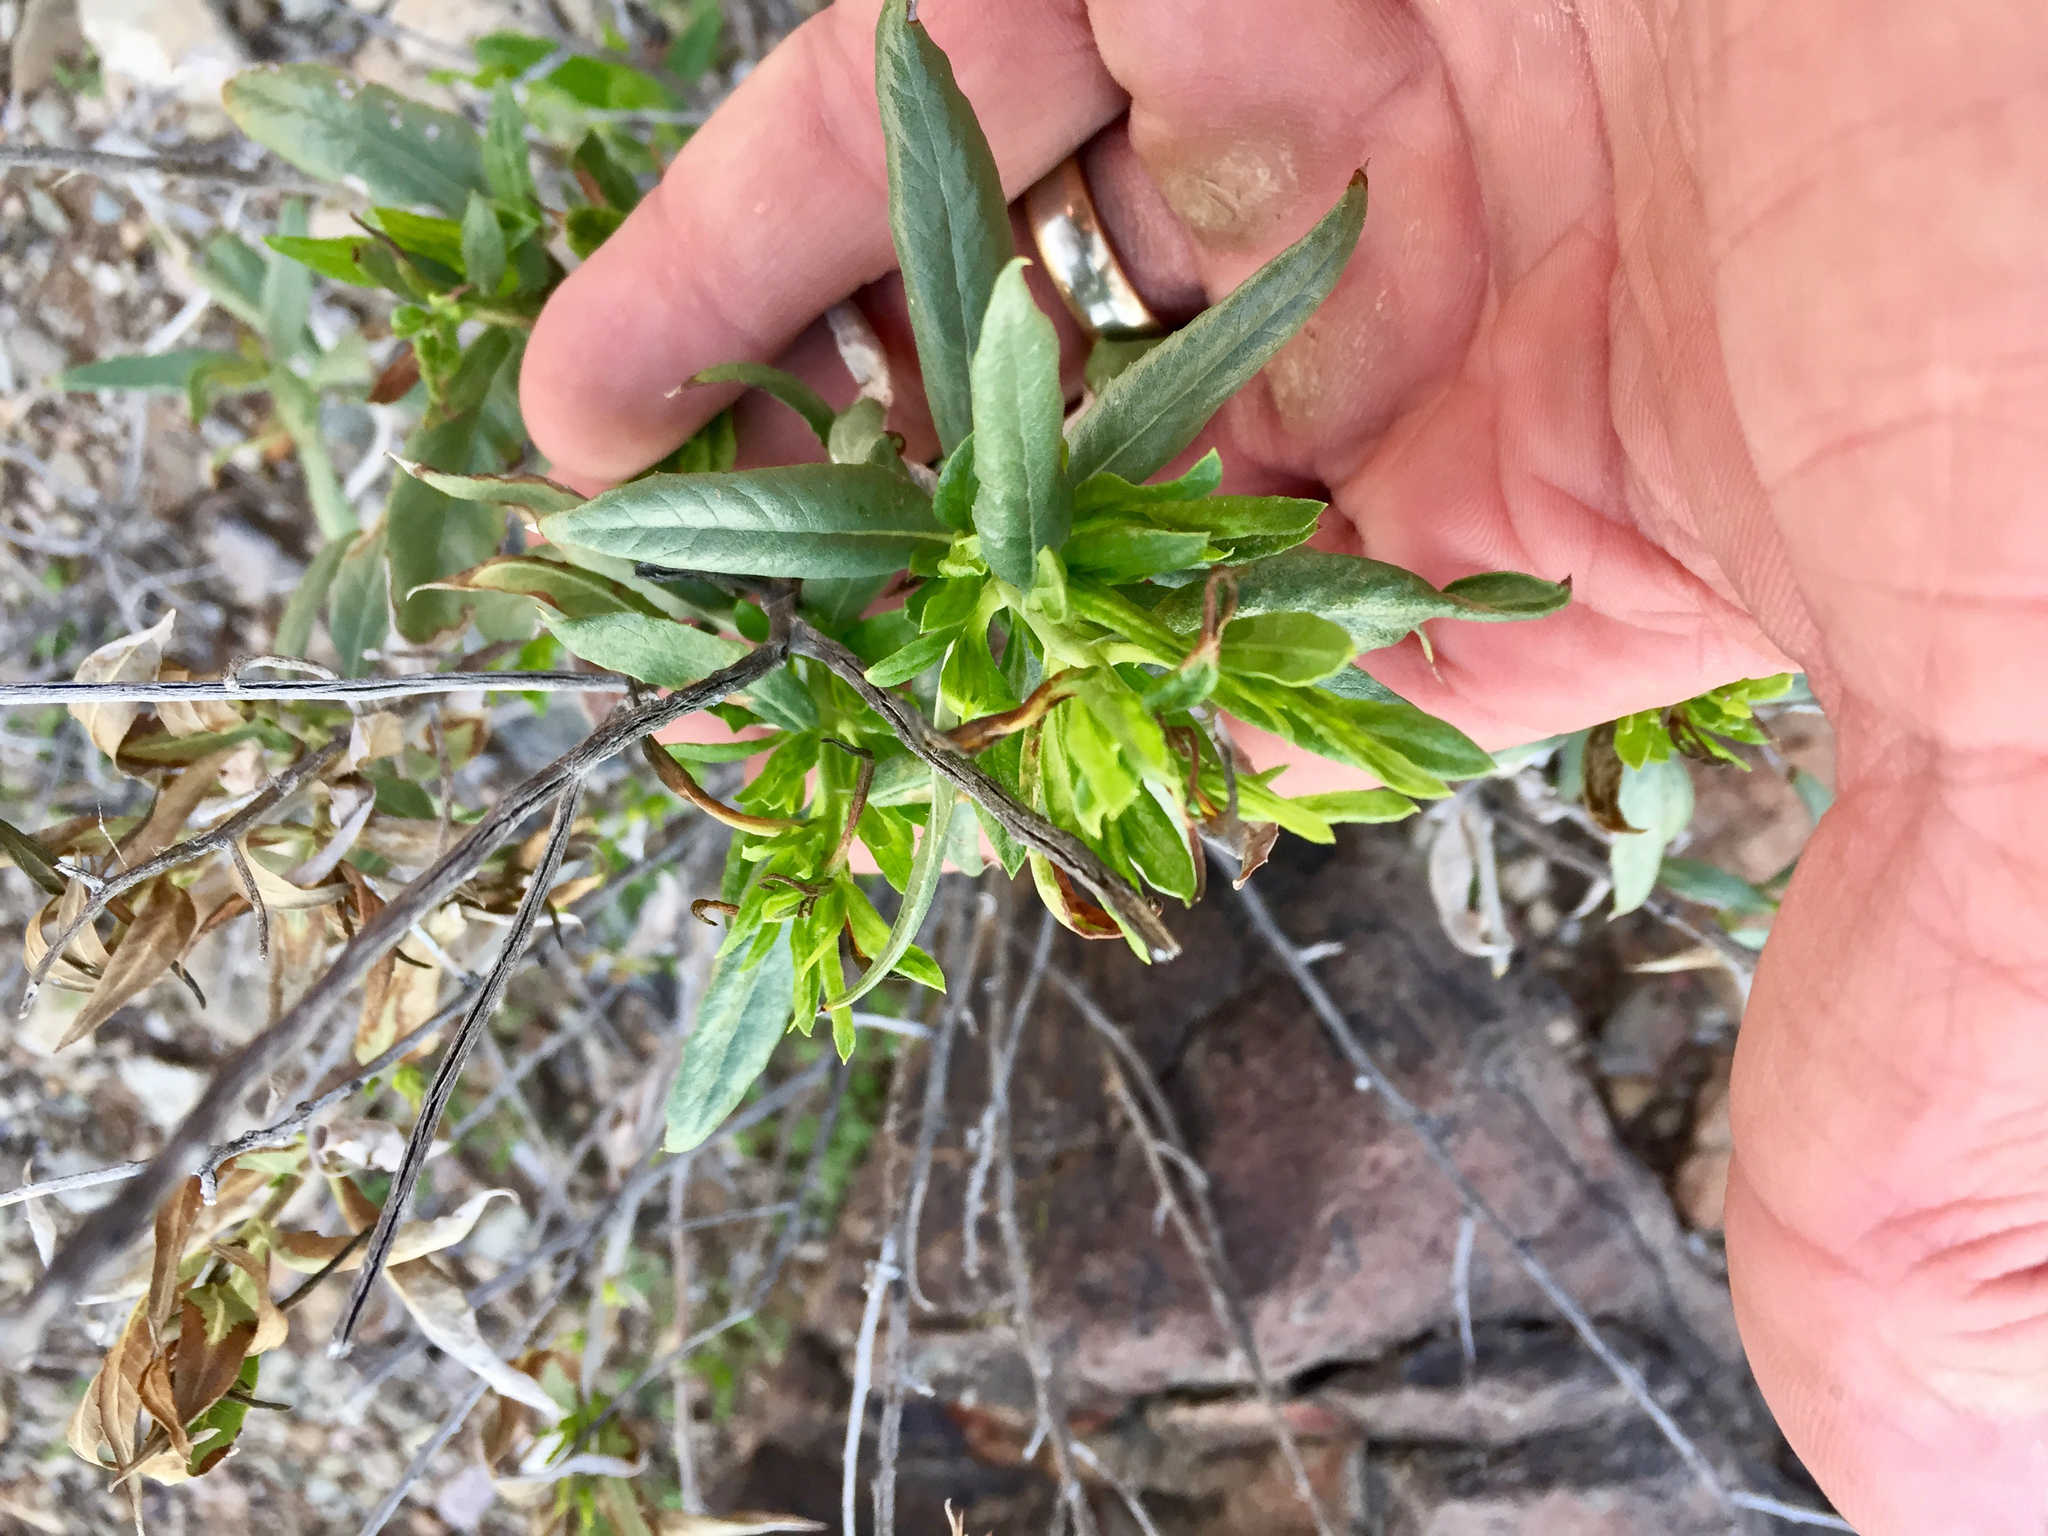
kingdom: Plantae
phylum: Tracheophyta
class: Magnoliopsida
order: Asterales
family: Asteraceae
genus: Trixis
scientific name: Trixis californica
